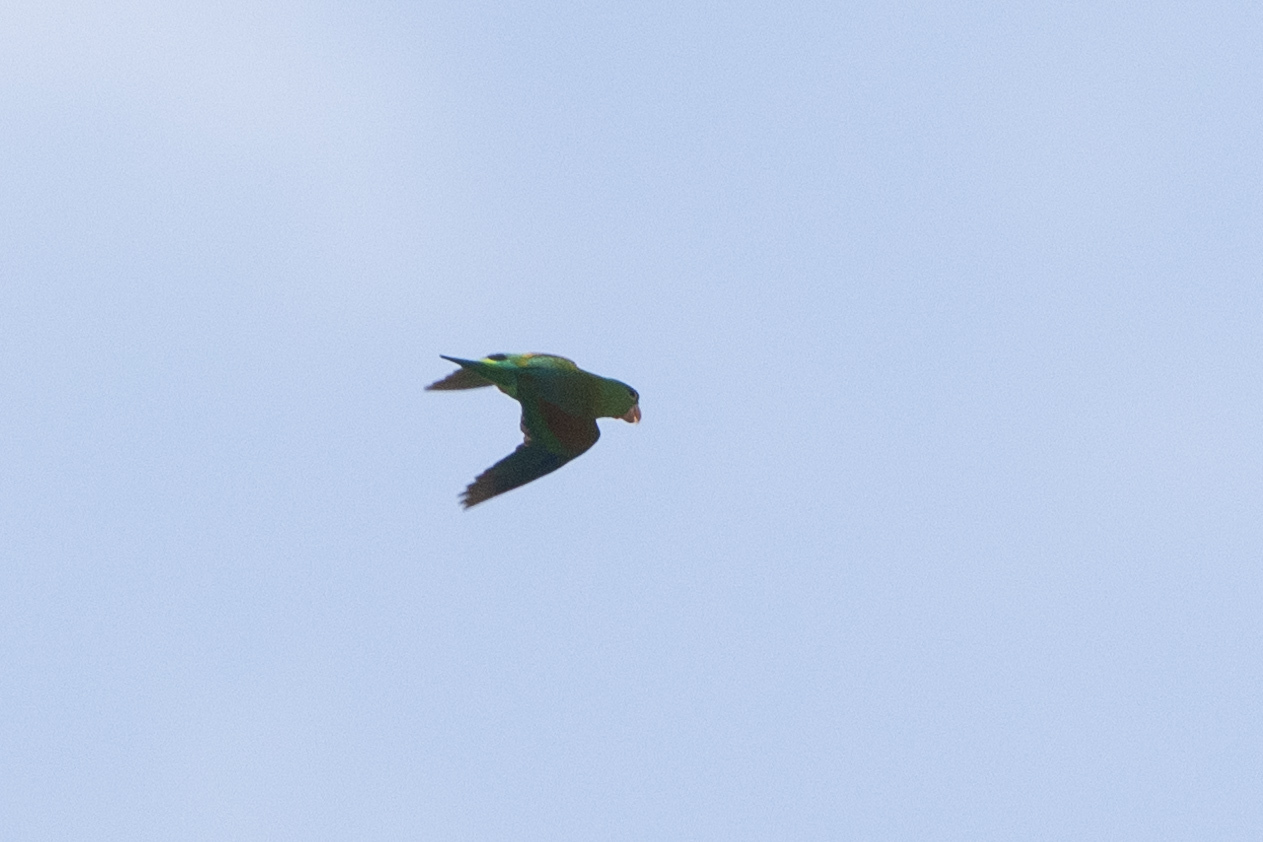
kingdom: Animalia
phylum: Chordata
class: Aves
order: Psittaciformes
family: Psittacidae
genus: Brotogeris
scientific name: Brotogeris jugularis
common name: Orange-chinned parakeet
